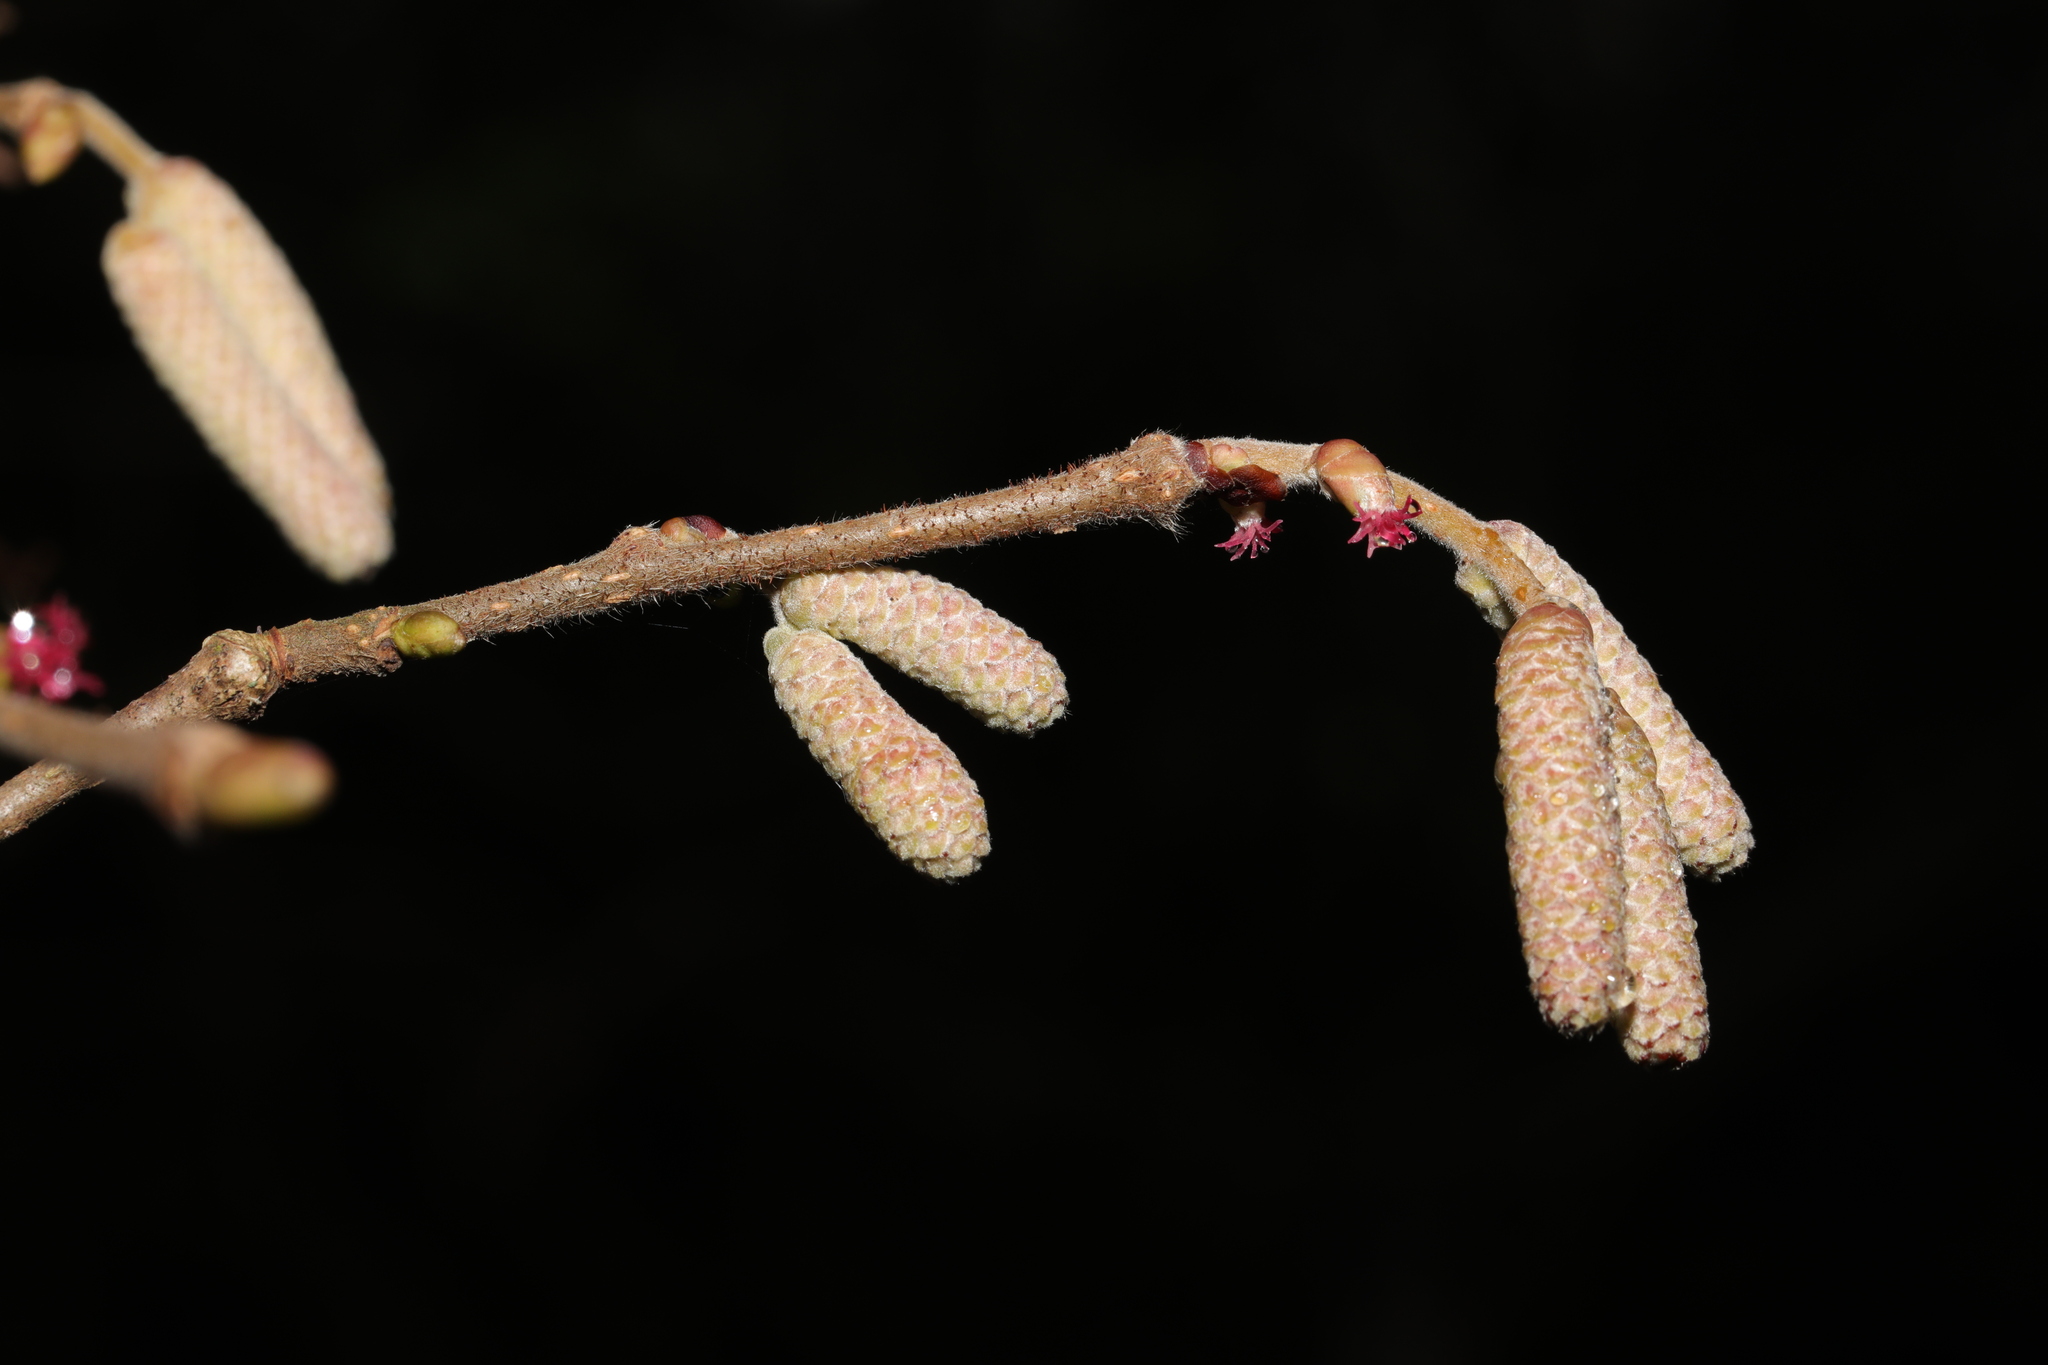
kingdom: Plantae
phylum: Tracheophyta
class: Magnoliopsida
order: Fagales
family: Betulaceae
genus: Corylus
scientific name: Corylus avellana
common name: European hazel
